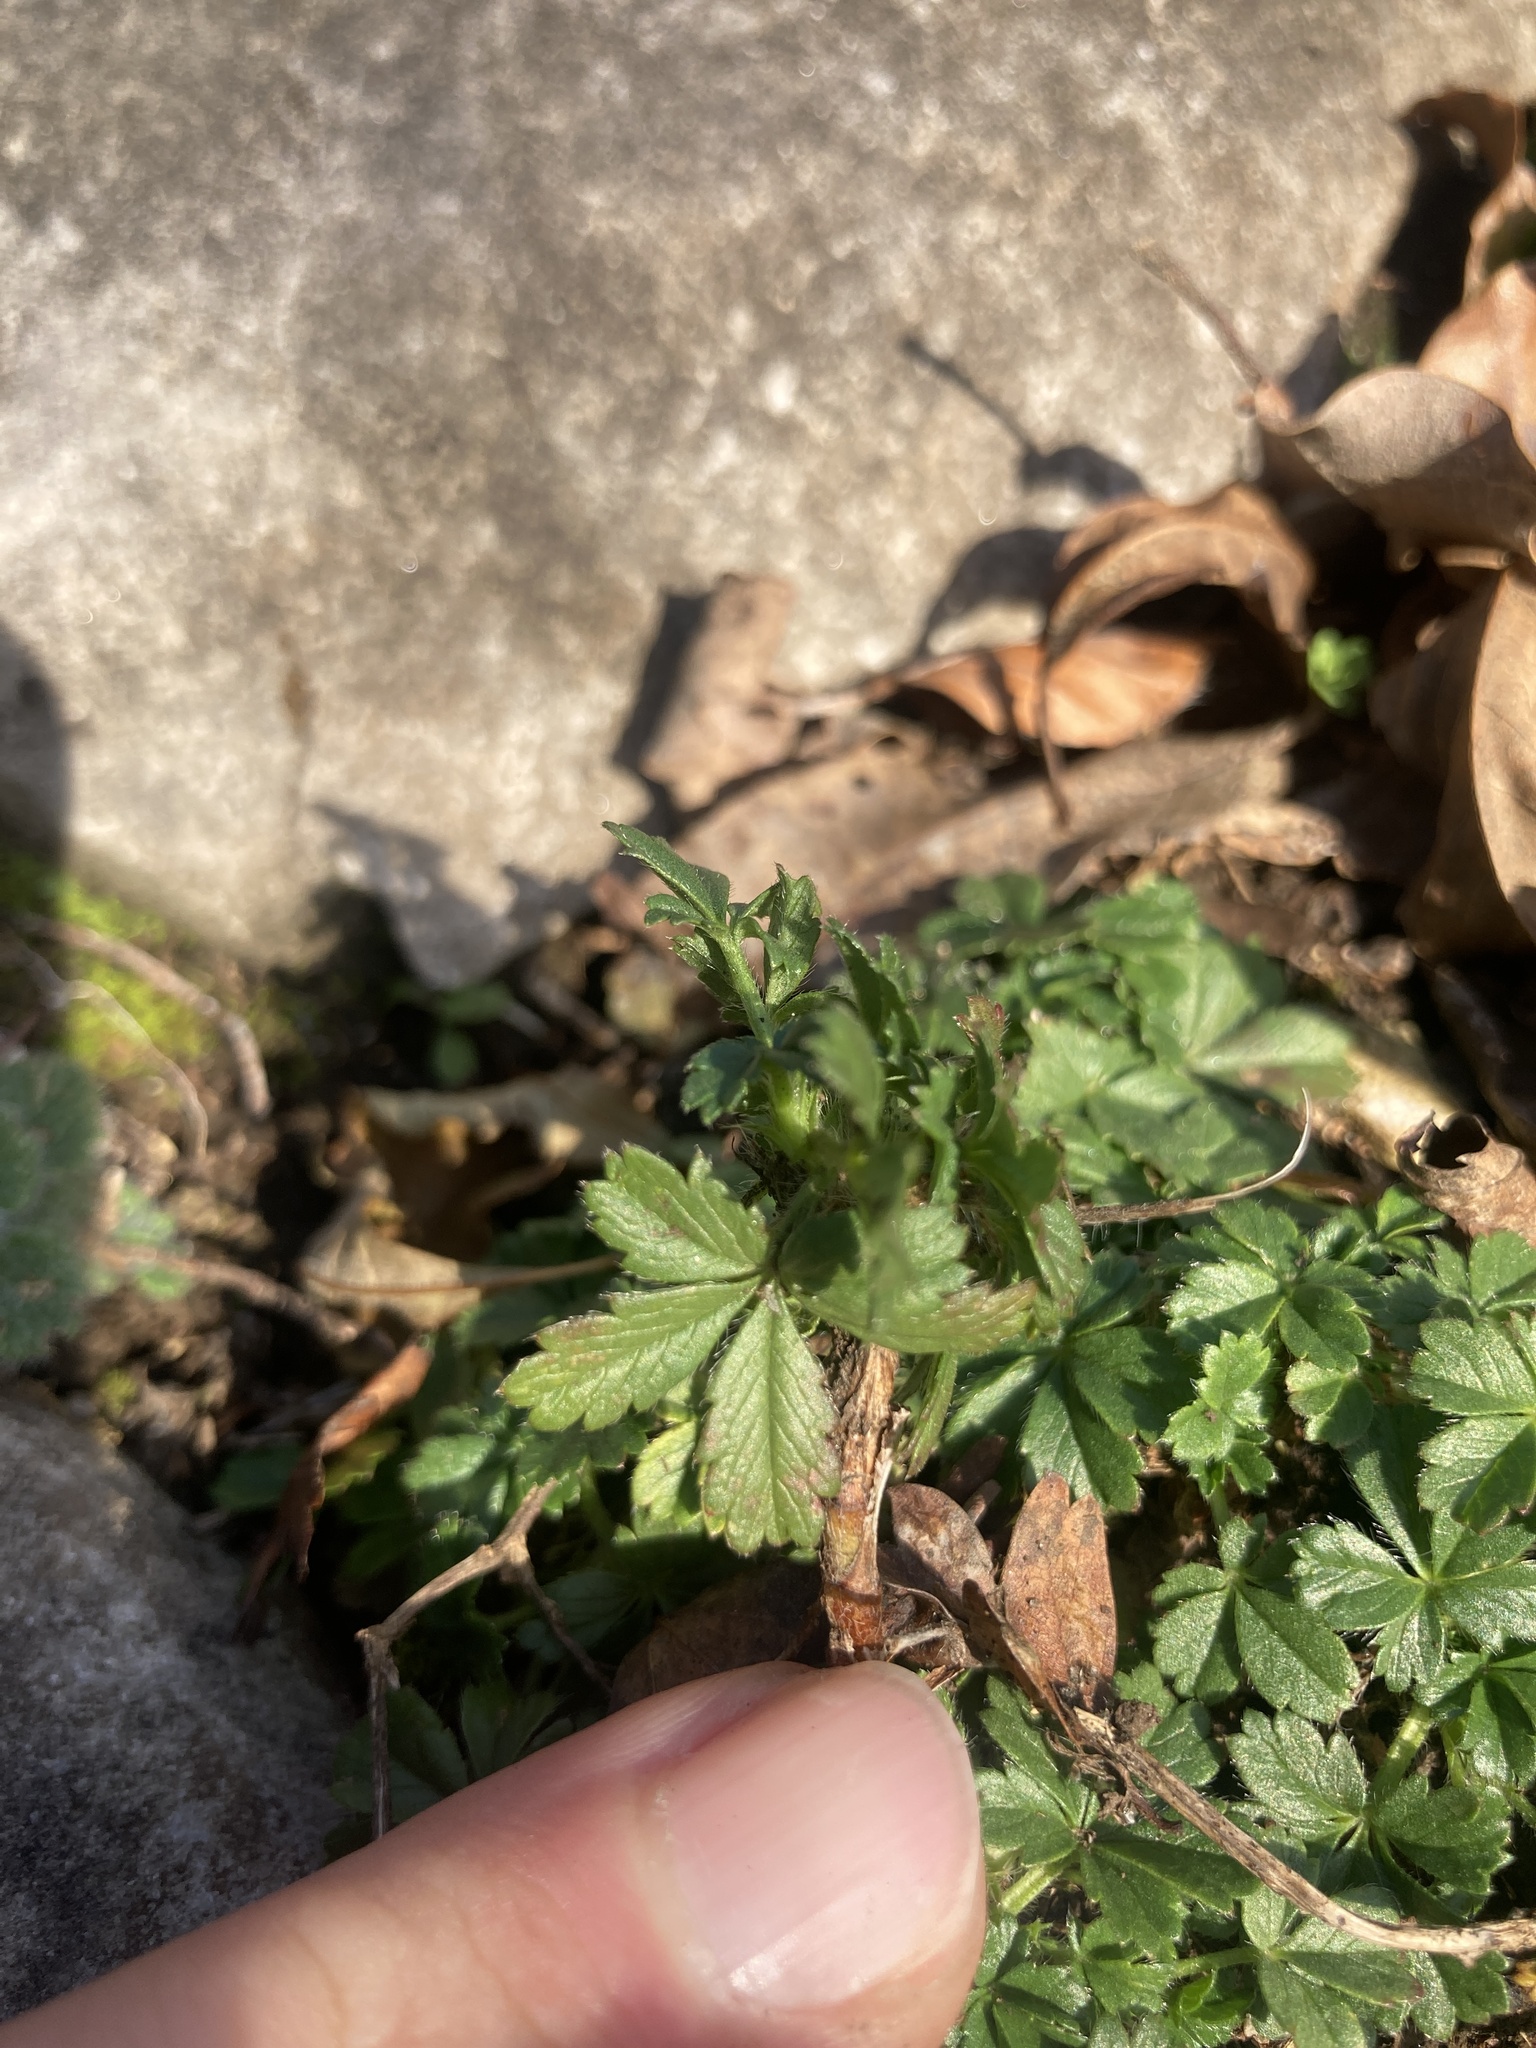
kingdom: Plantae
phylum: Tracheophyta
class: Magnoliopsida
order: Rosales
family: Rosaceae
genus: Potentilla
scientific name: Potentilla verna
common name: Spring cinquefoil
